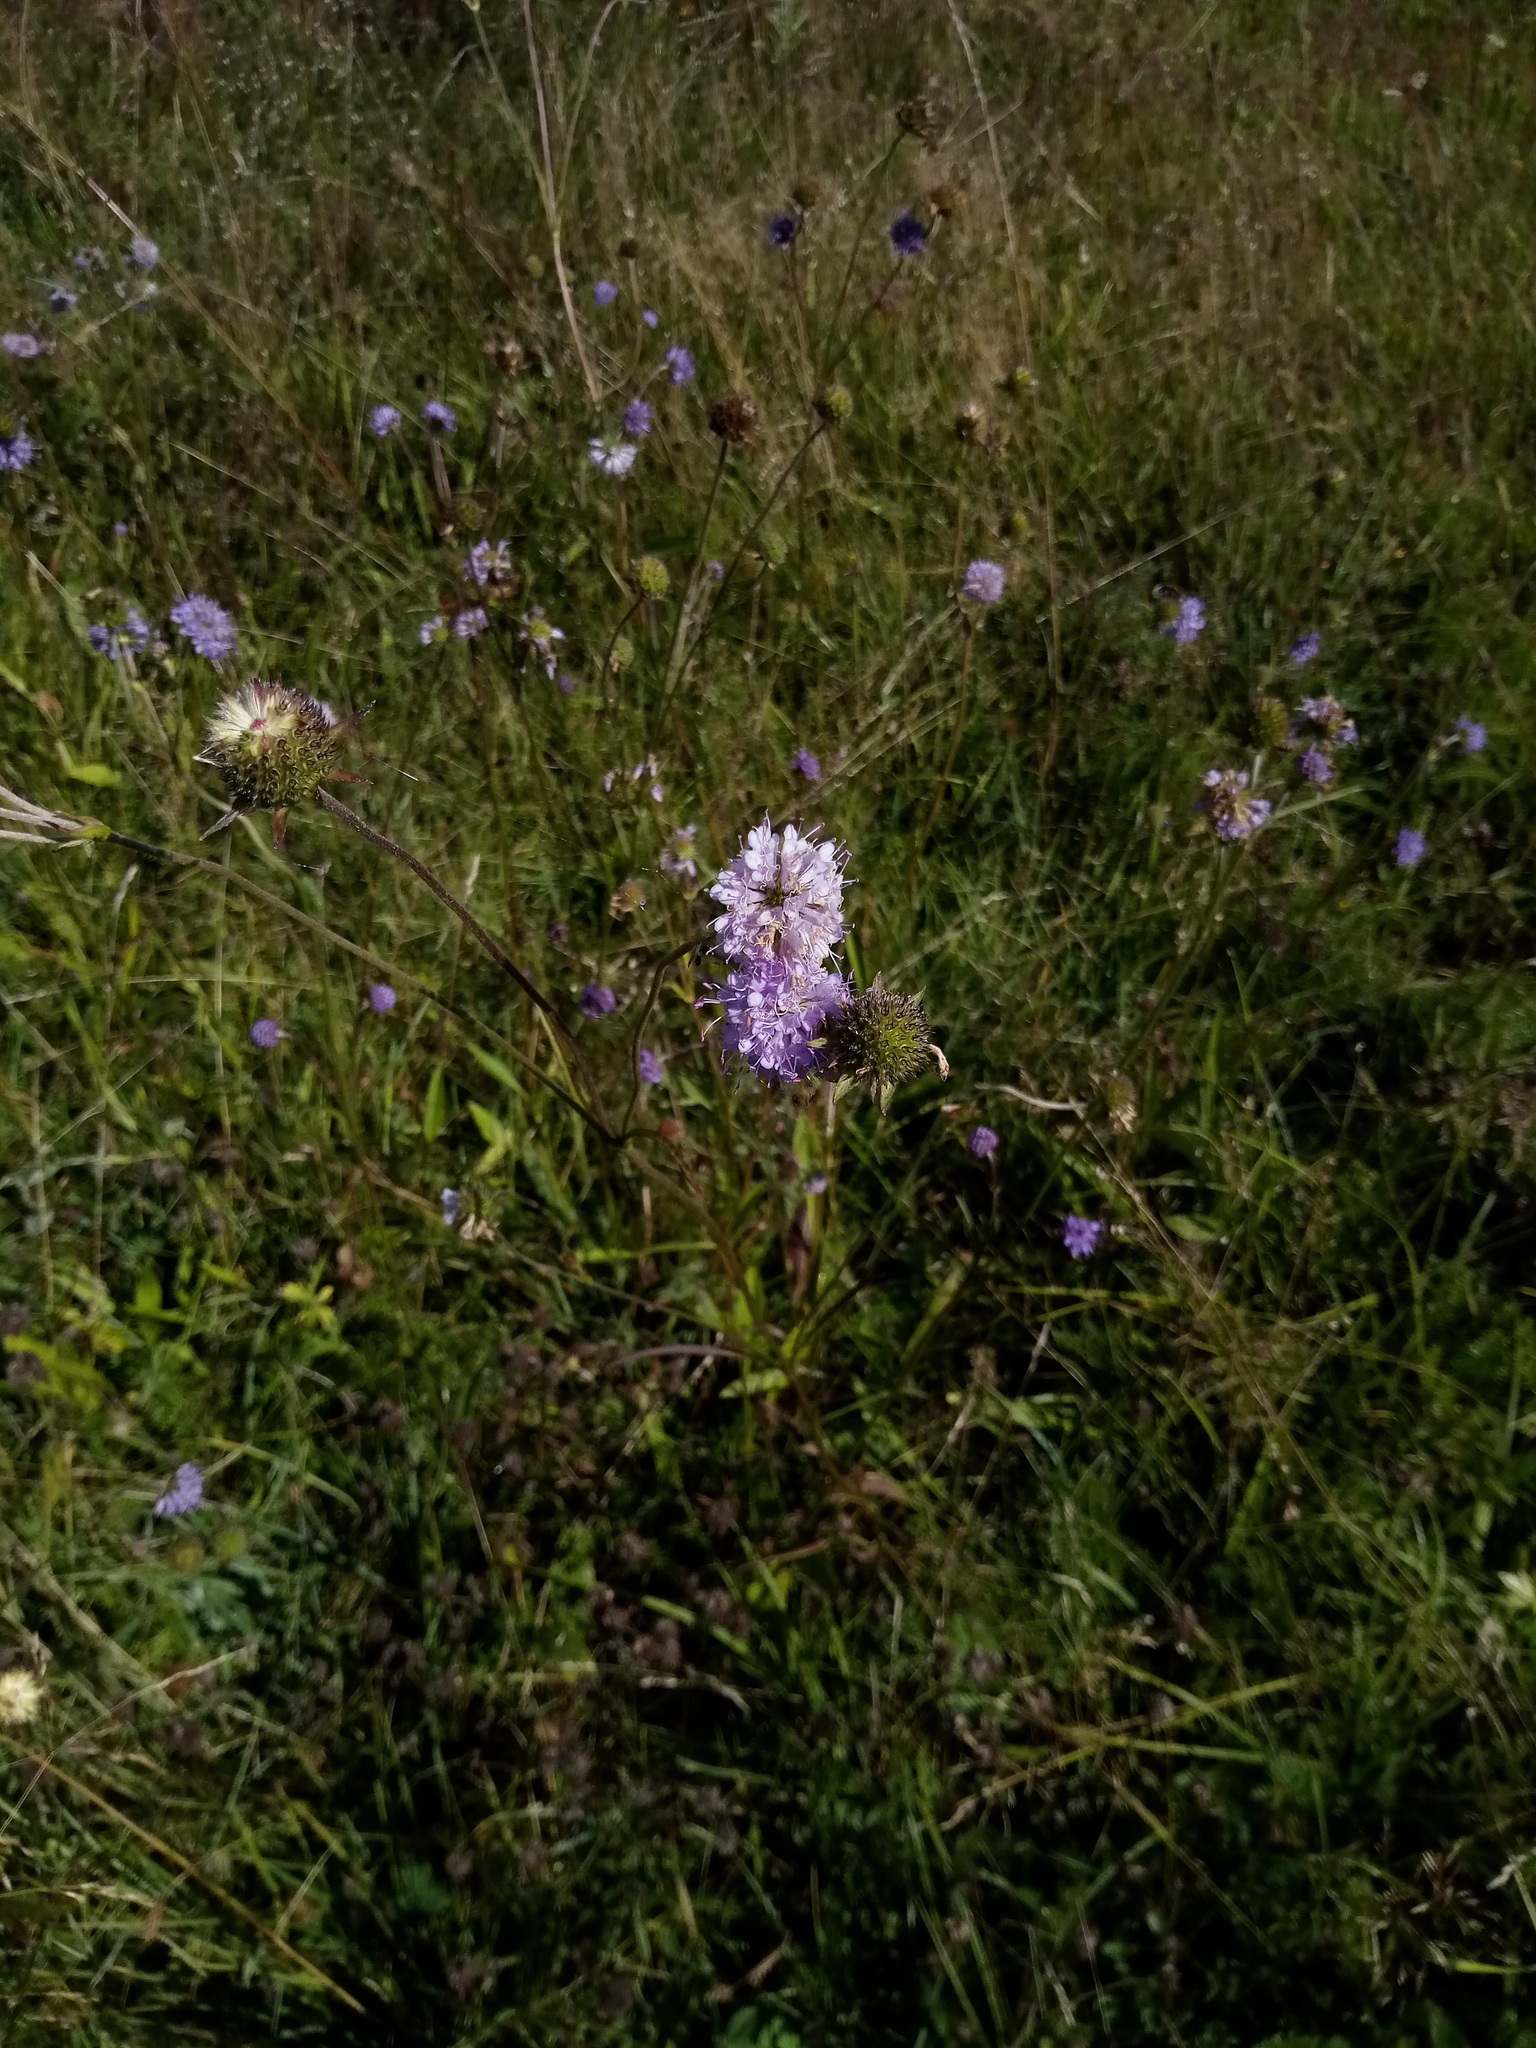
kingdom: Plantae
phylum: Tracheophyta
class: Magnoliopsida
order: Dipsacales
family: Caprifoliaceae
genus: Succisa
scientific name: Succisa pratensis
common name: Devil's-bit
